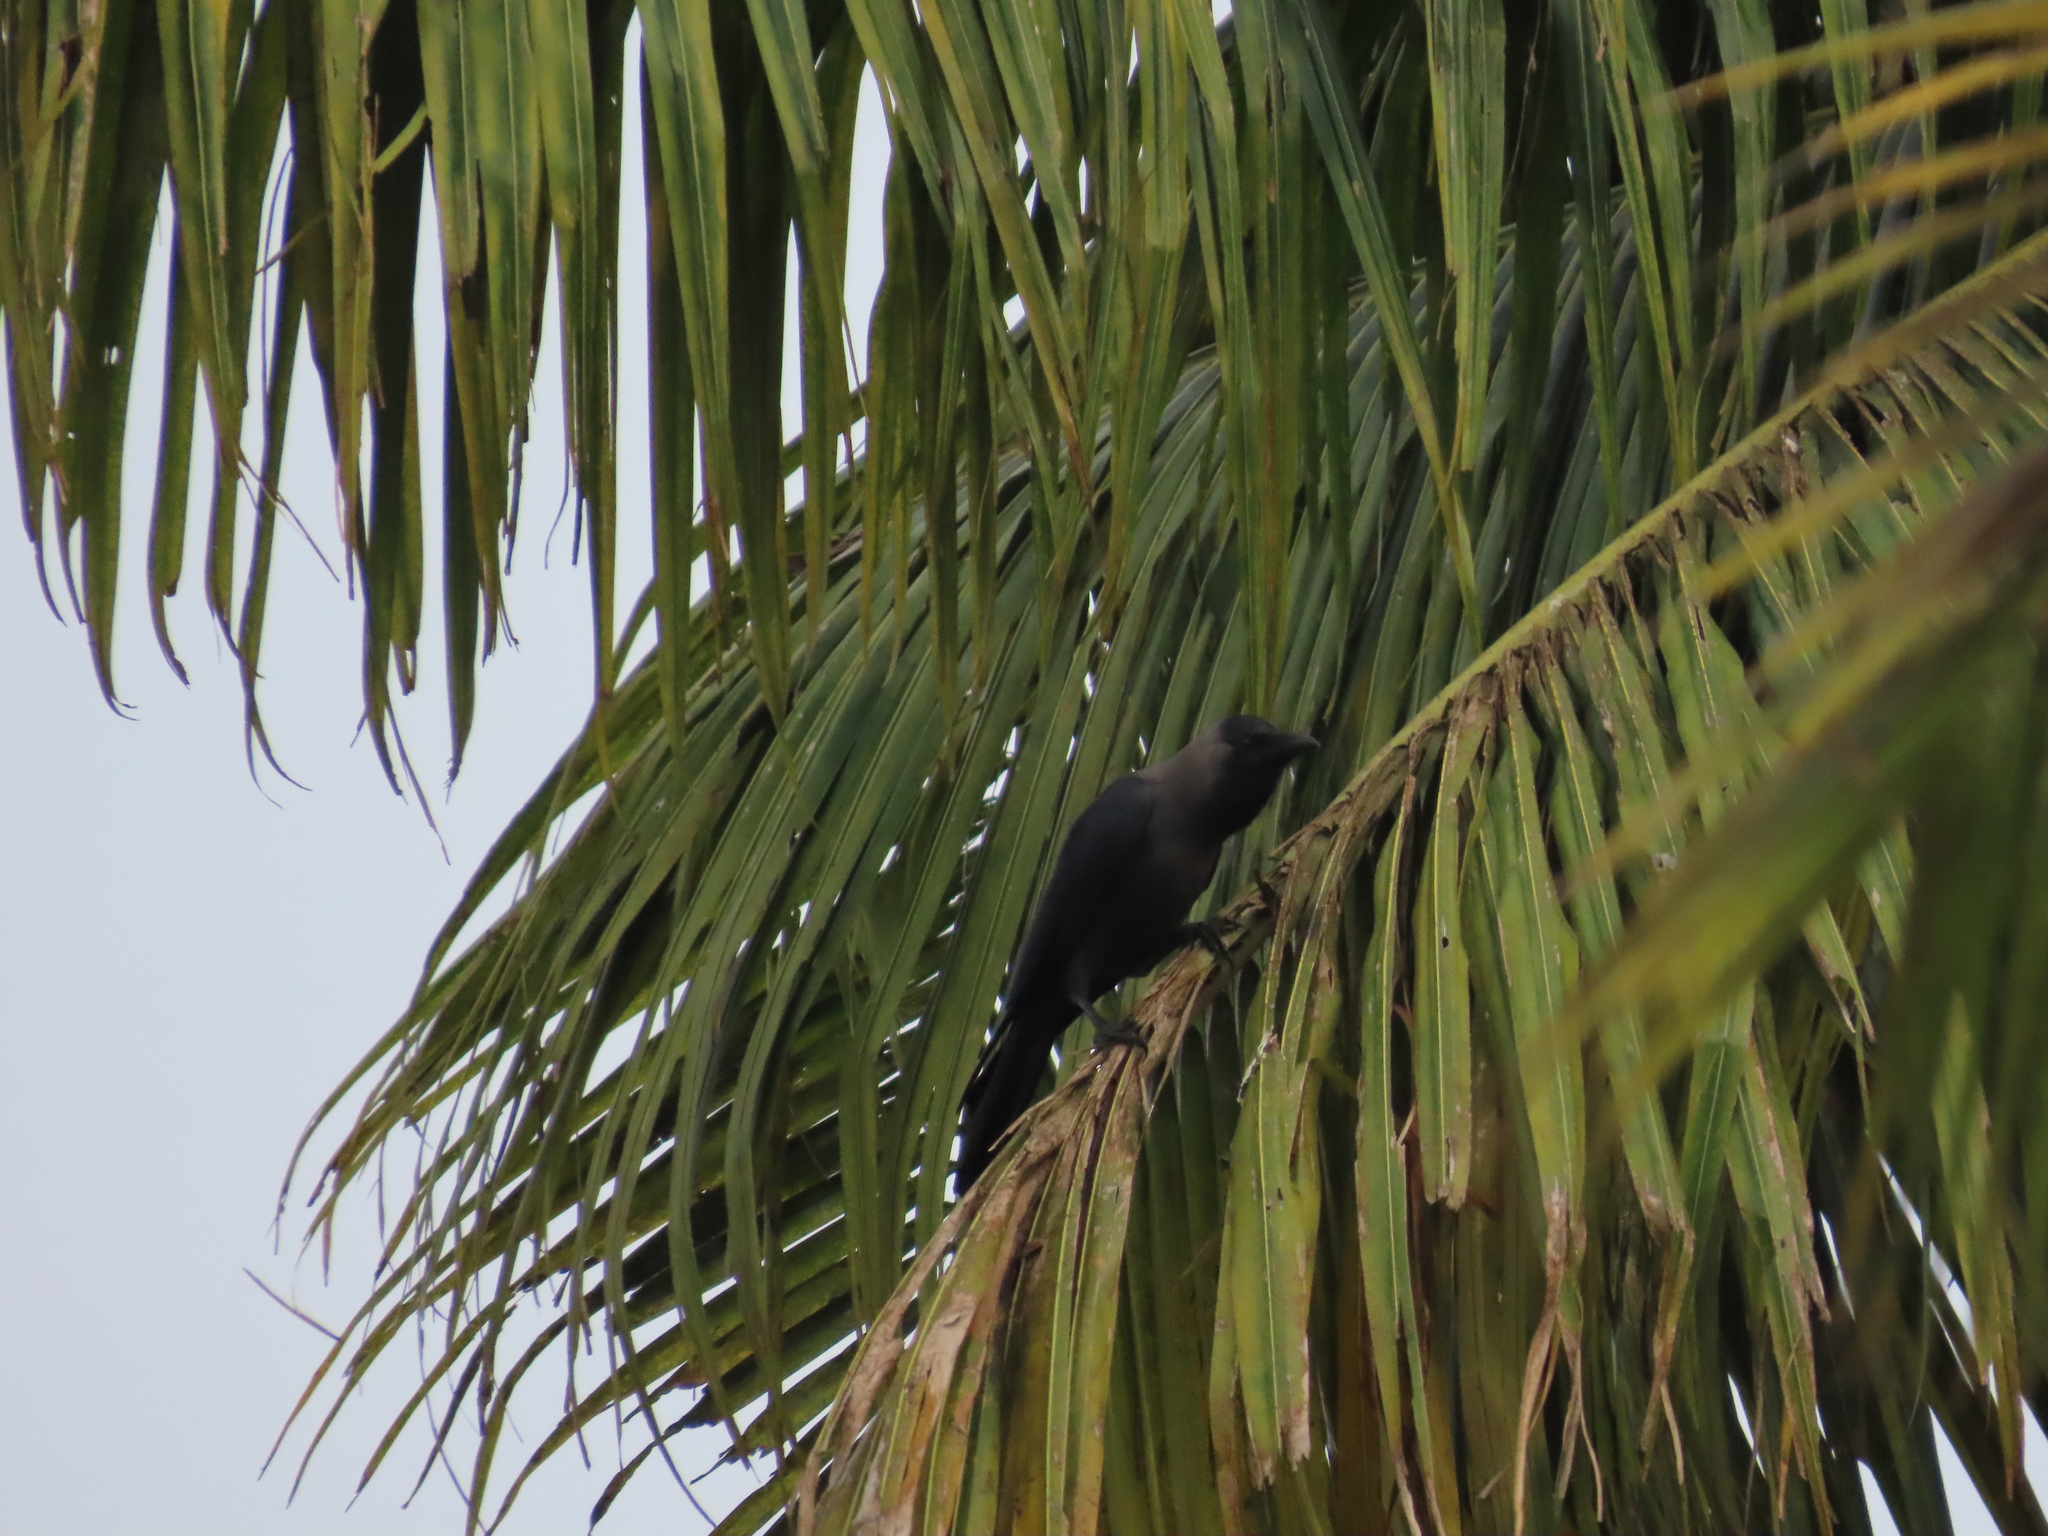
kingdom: Animalia
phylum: Chordata
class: Aves
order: Passeriformes
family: Corvidae
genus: Corvus
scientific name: Corvus splendens
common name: House crow
